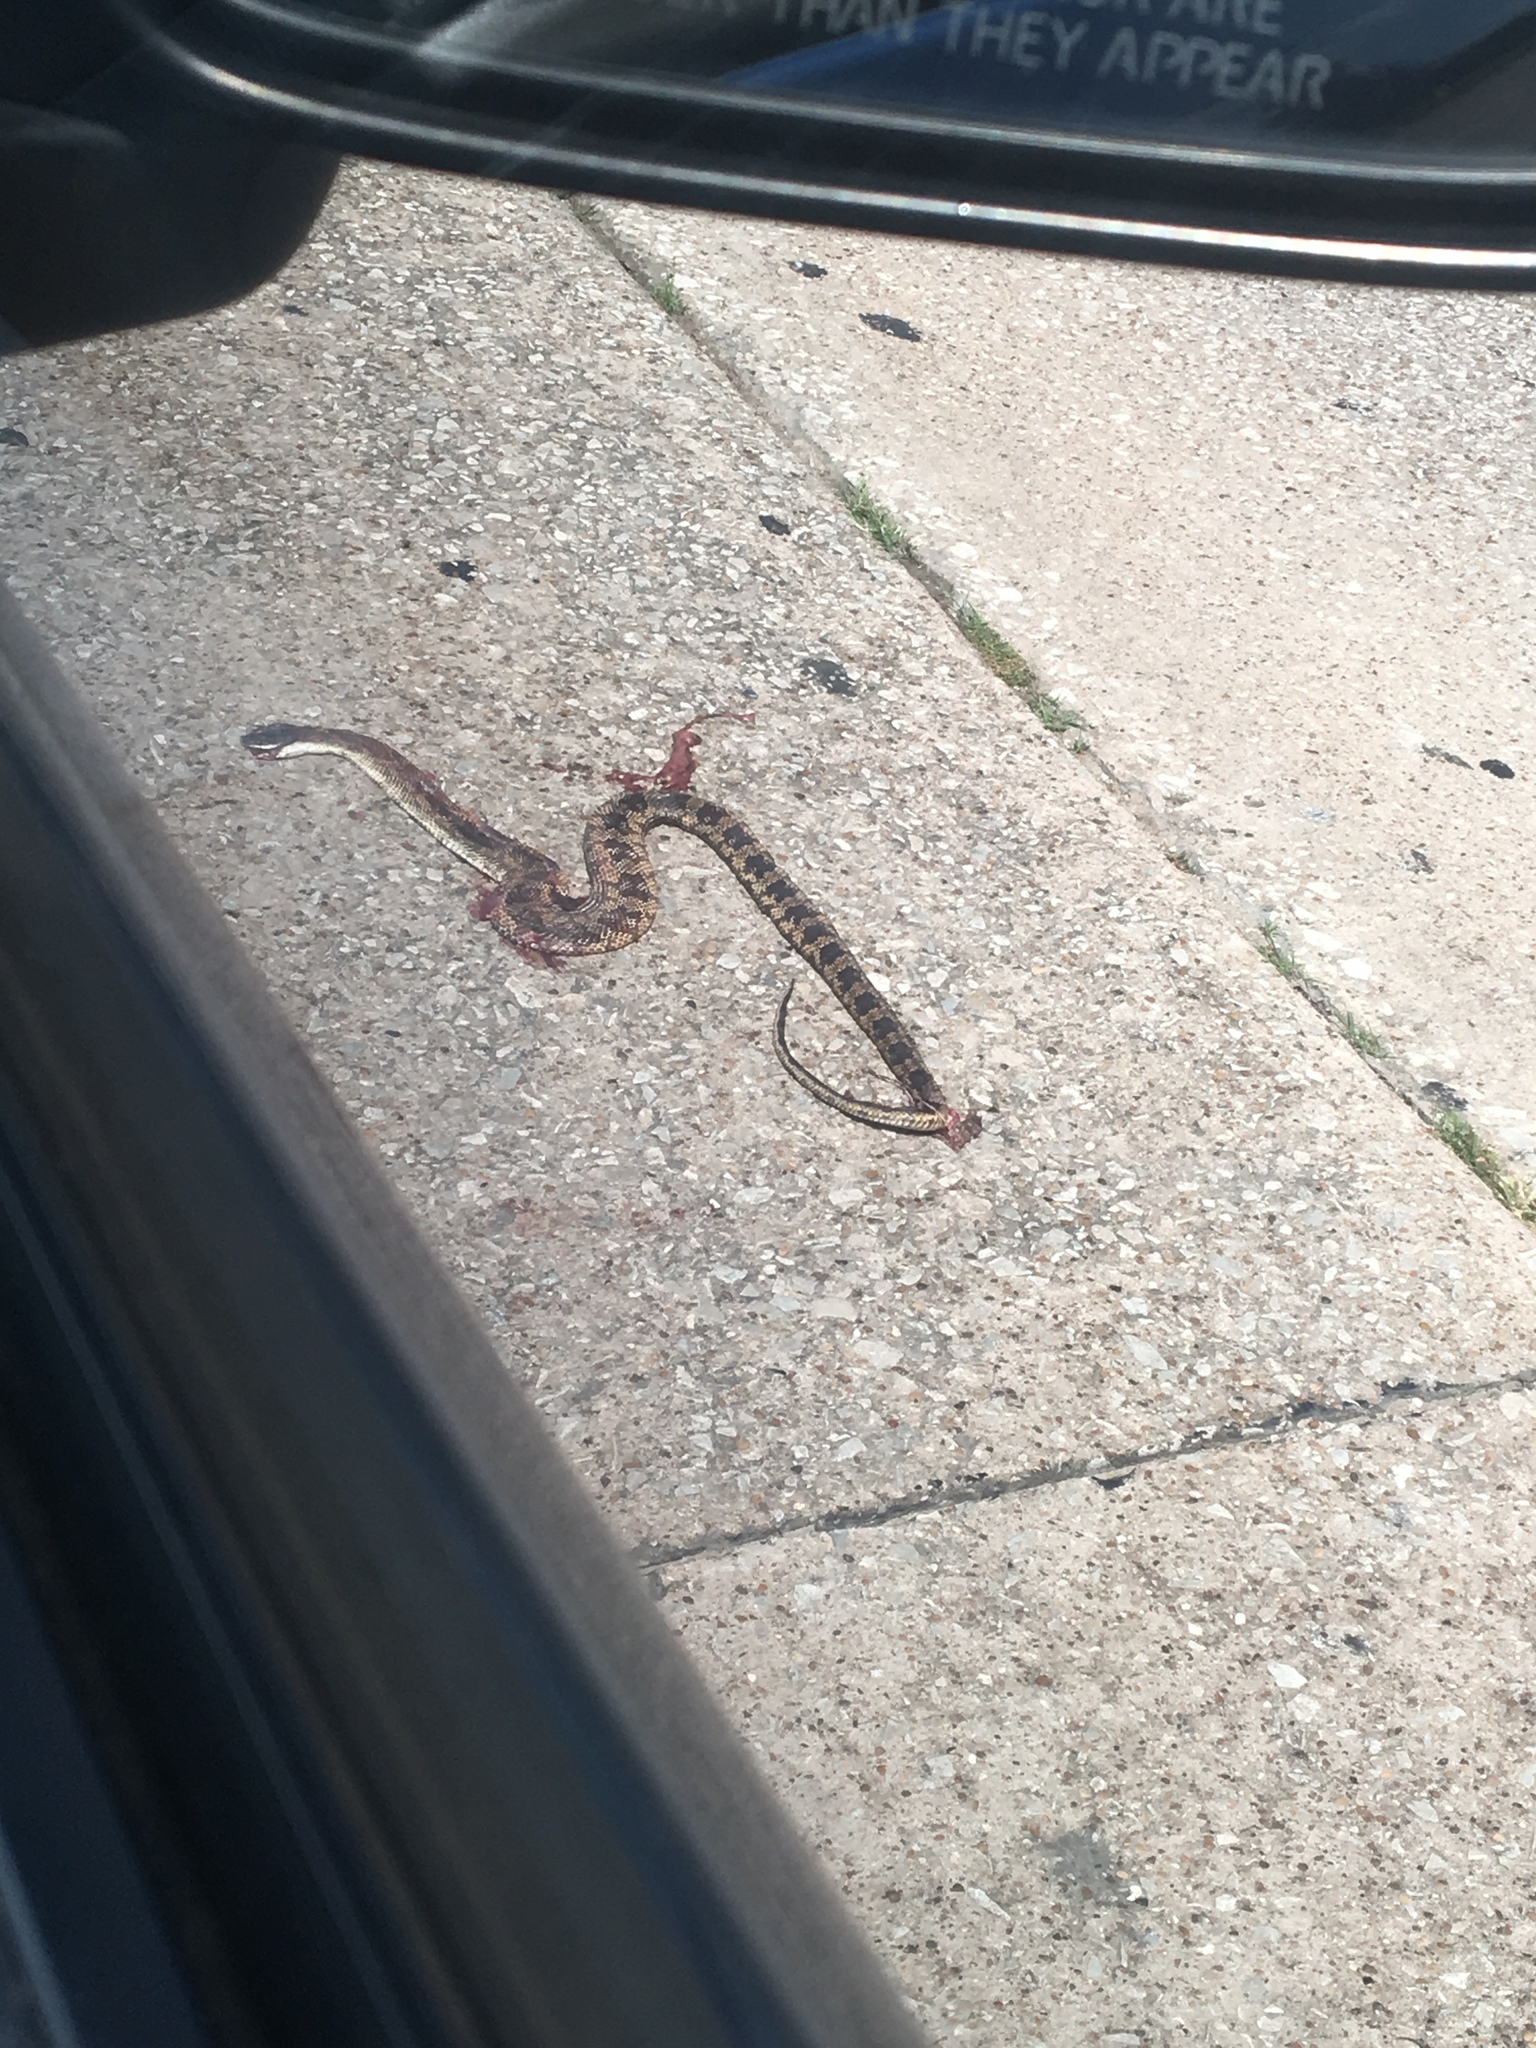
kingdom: Animalia
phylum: Chordata
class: Squamata
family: Colubridae
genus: Pantherophis
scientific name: Pantherophis obsoletus
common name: Black rat snake
